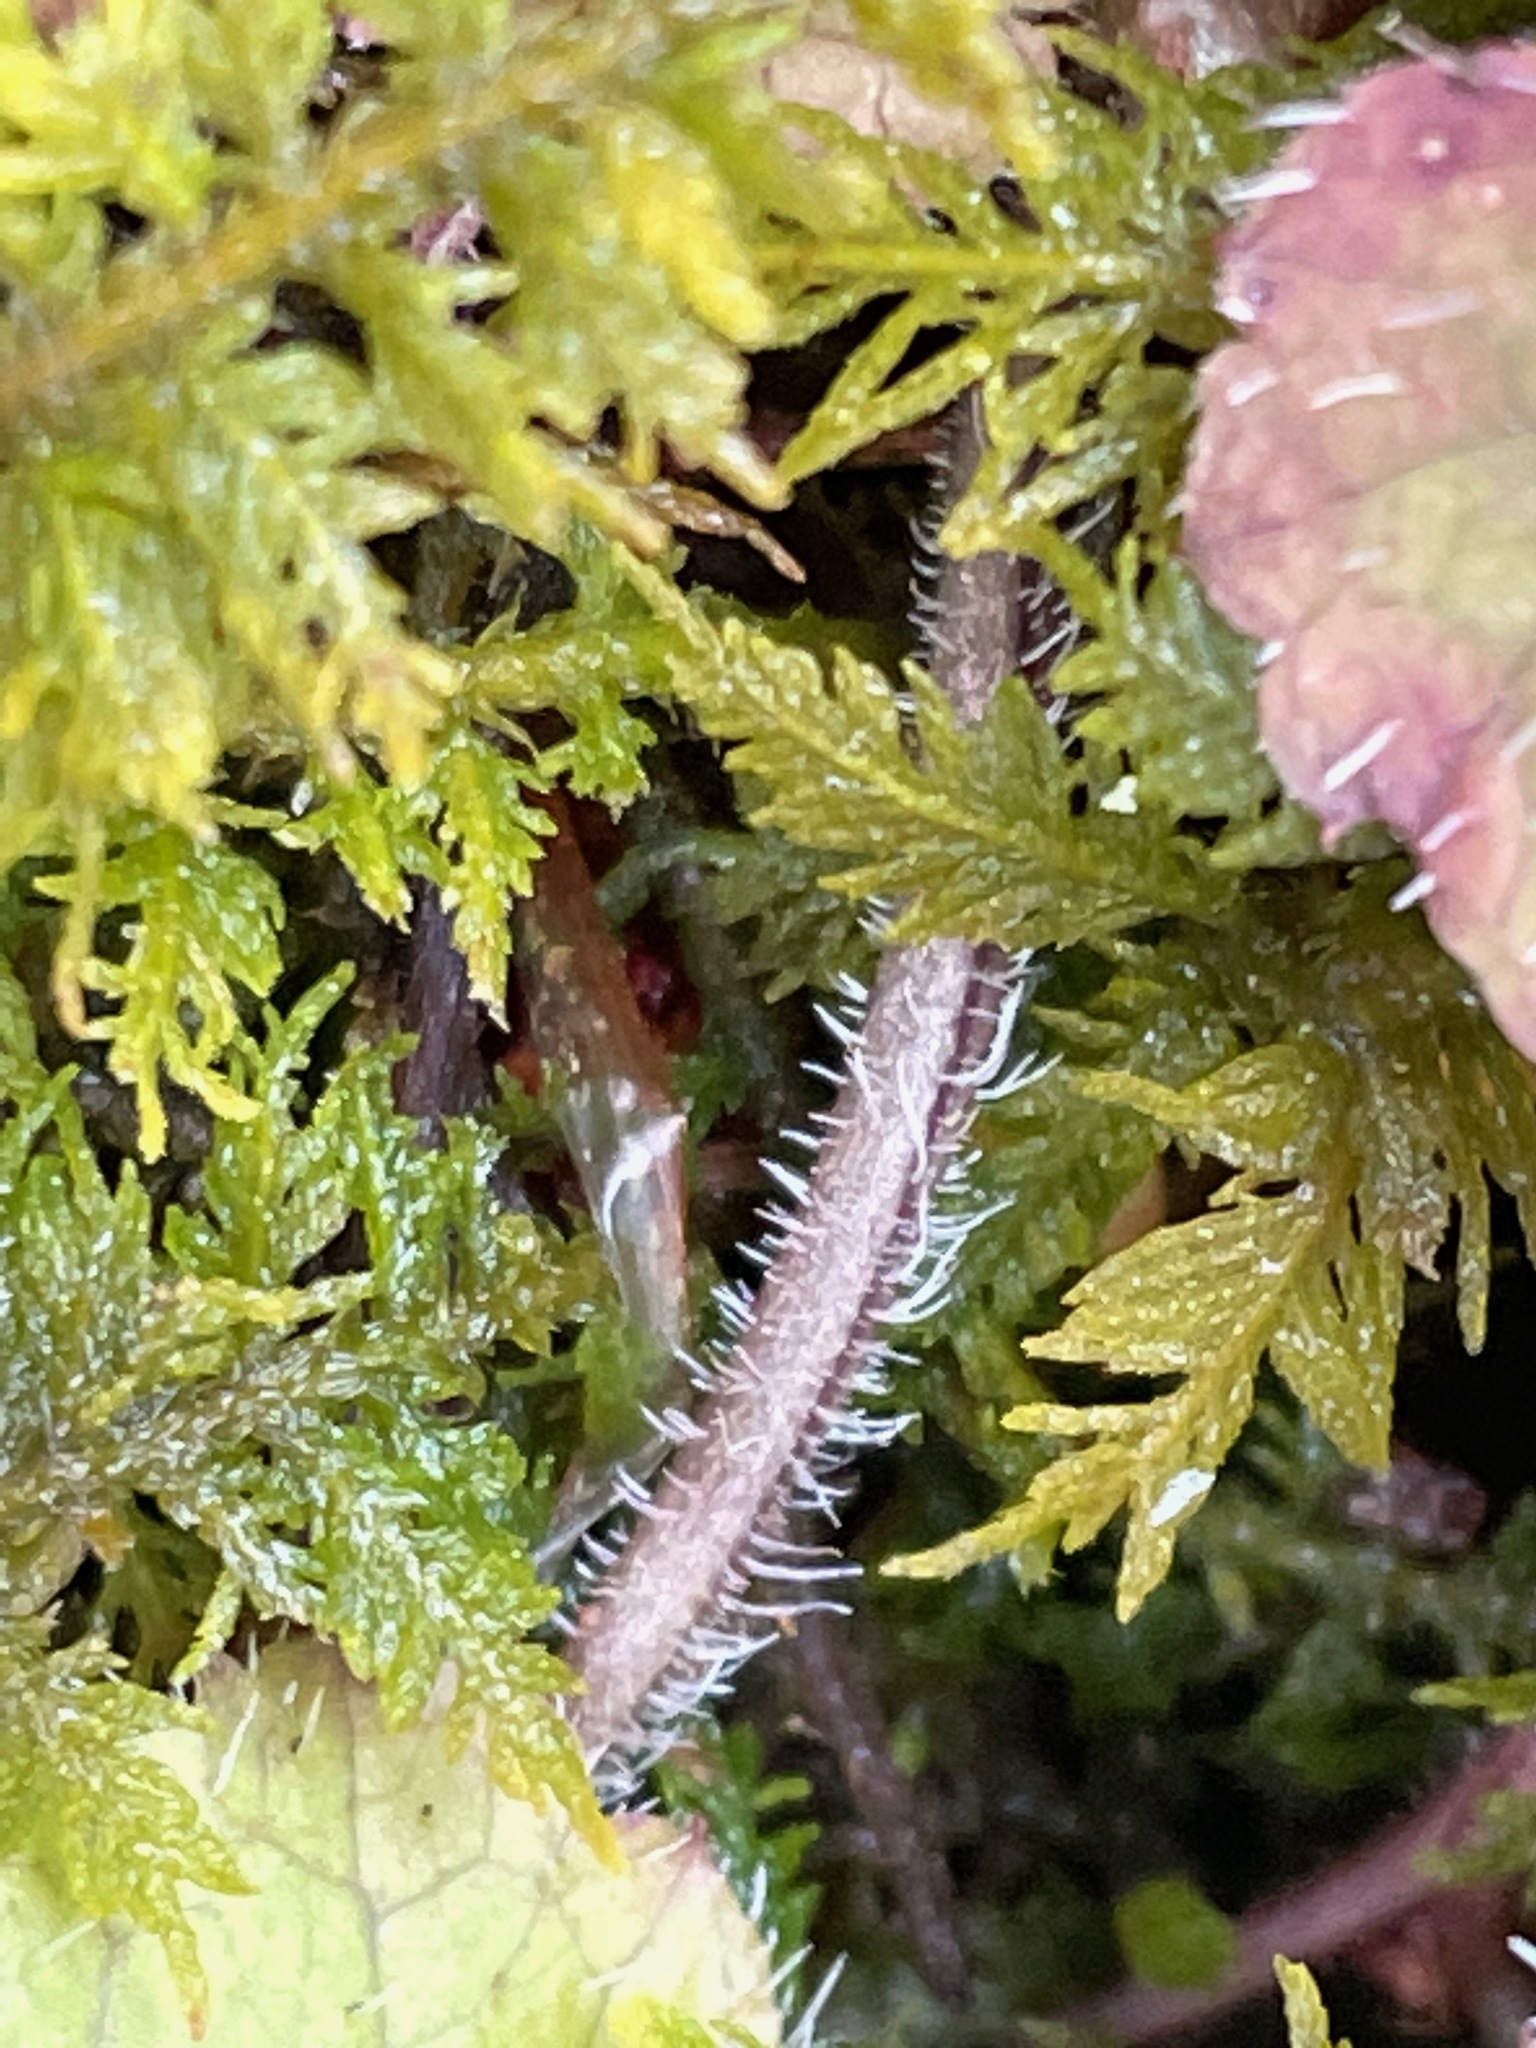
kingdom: Plantae
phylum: Tracheophyta
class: Magnoliopsida
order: Saxifragales
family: Saxifragaceae
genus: Tiarella
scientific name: Tiarella stolonifera
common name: Stoloniferous foamflower
